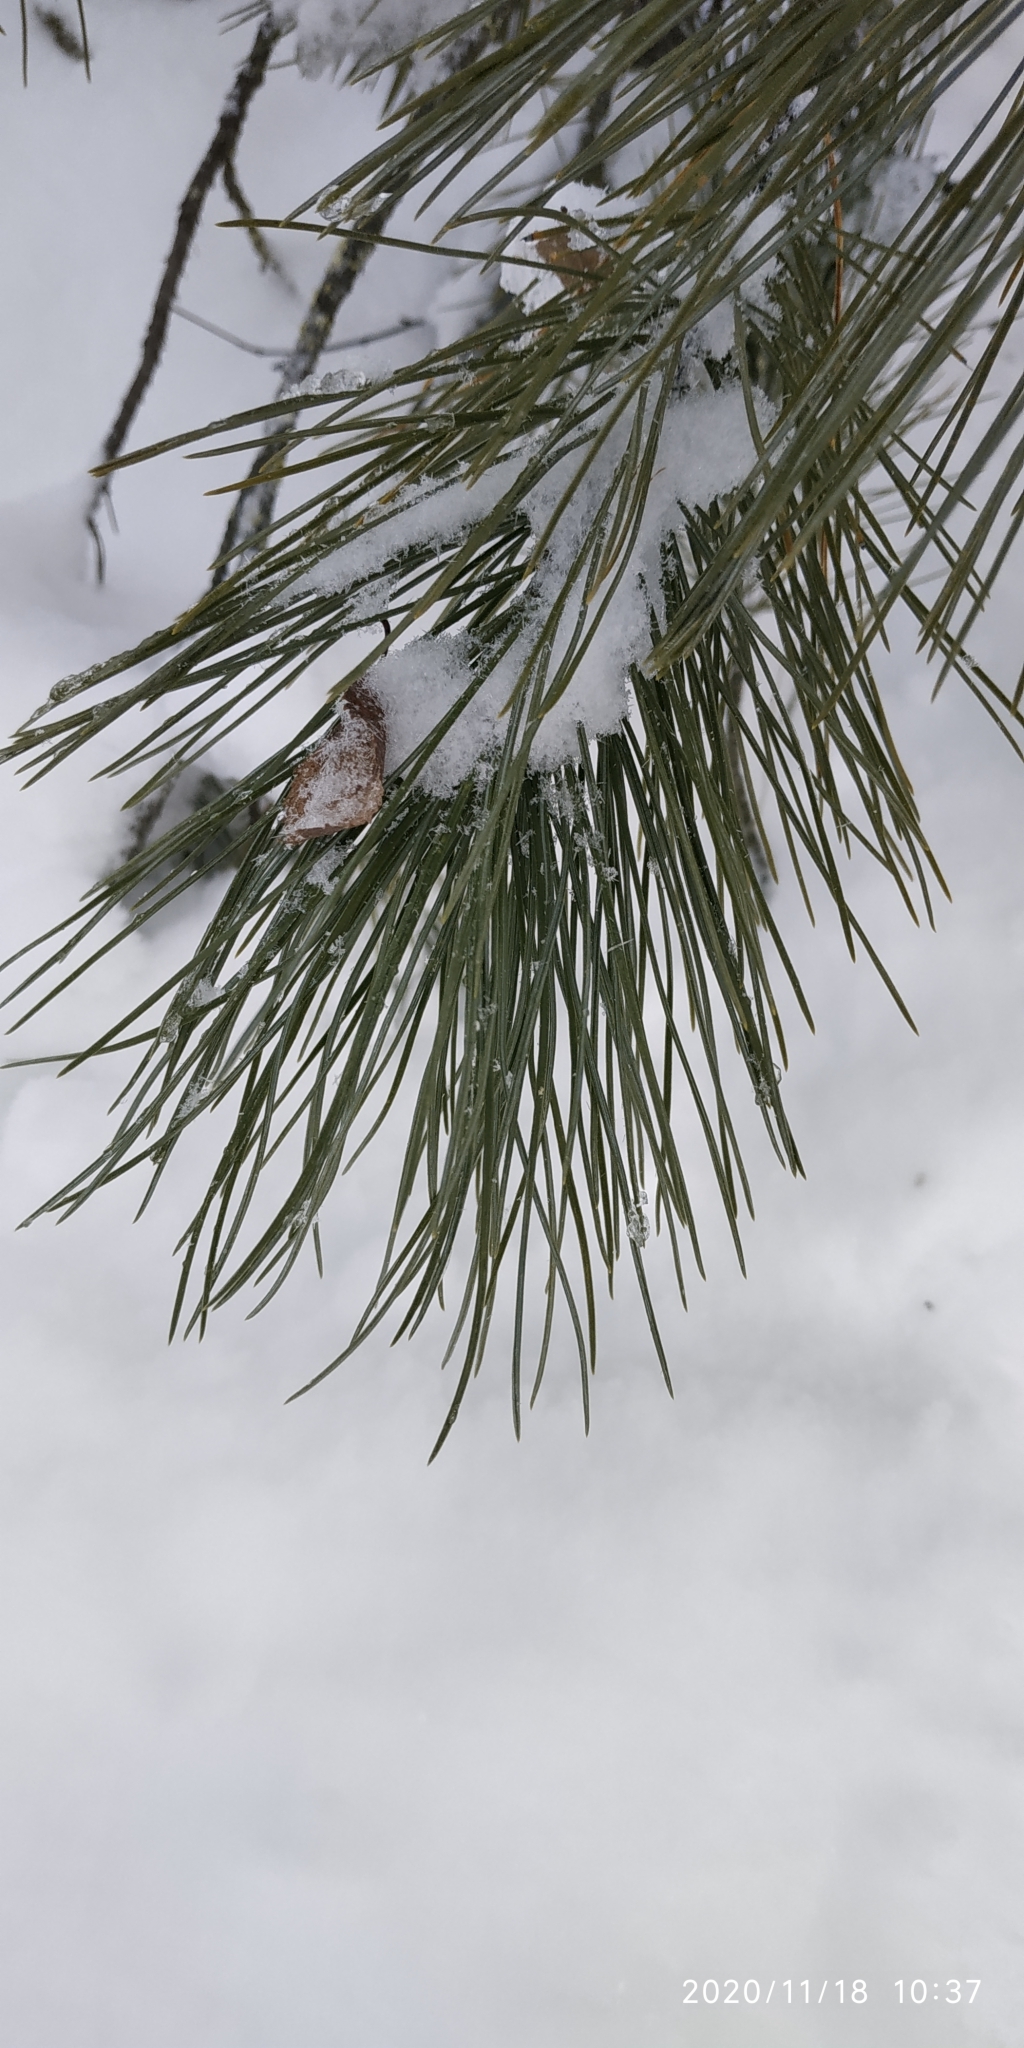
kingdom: Plantae
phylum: Tracheophyta
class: Pinopsida
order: Pinales
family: Pinaceae
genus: Pinus
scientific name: Pinus sibirica
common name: Siberian pine
